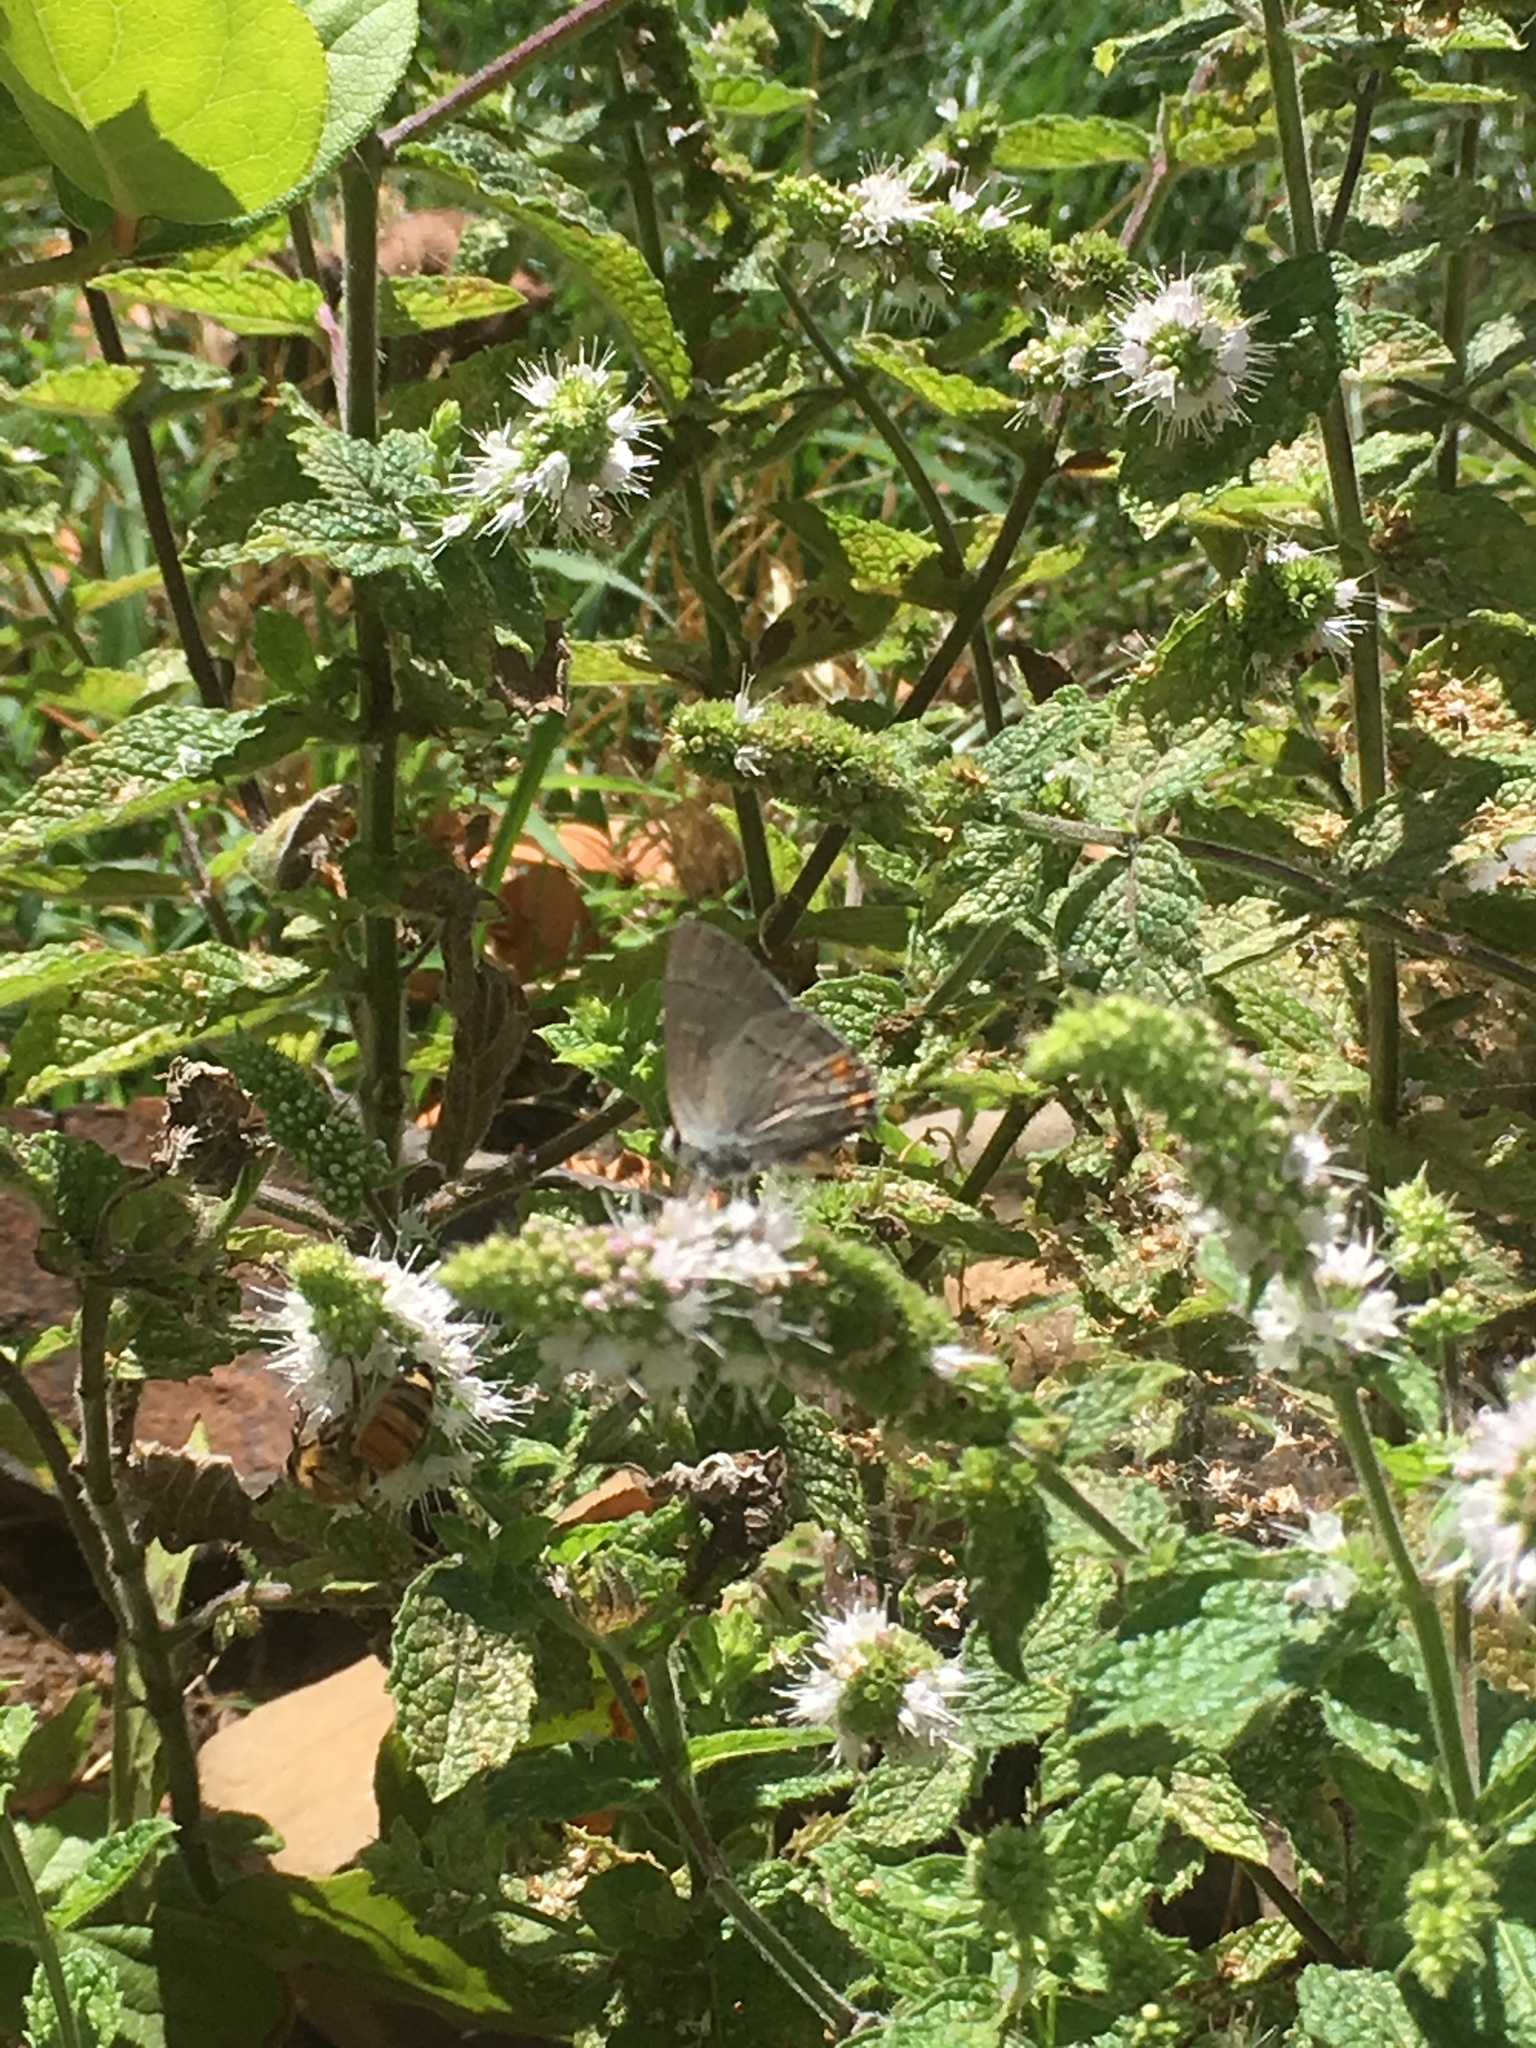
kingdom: Animalia
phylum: Arthropoda
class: Insecta
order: Lepidoptera
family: Lycaenidae
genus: Strymon
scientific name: Strymon melinus
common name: Gray hairstreak
